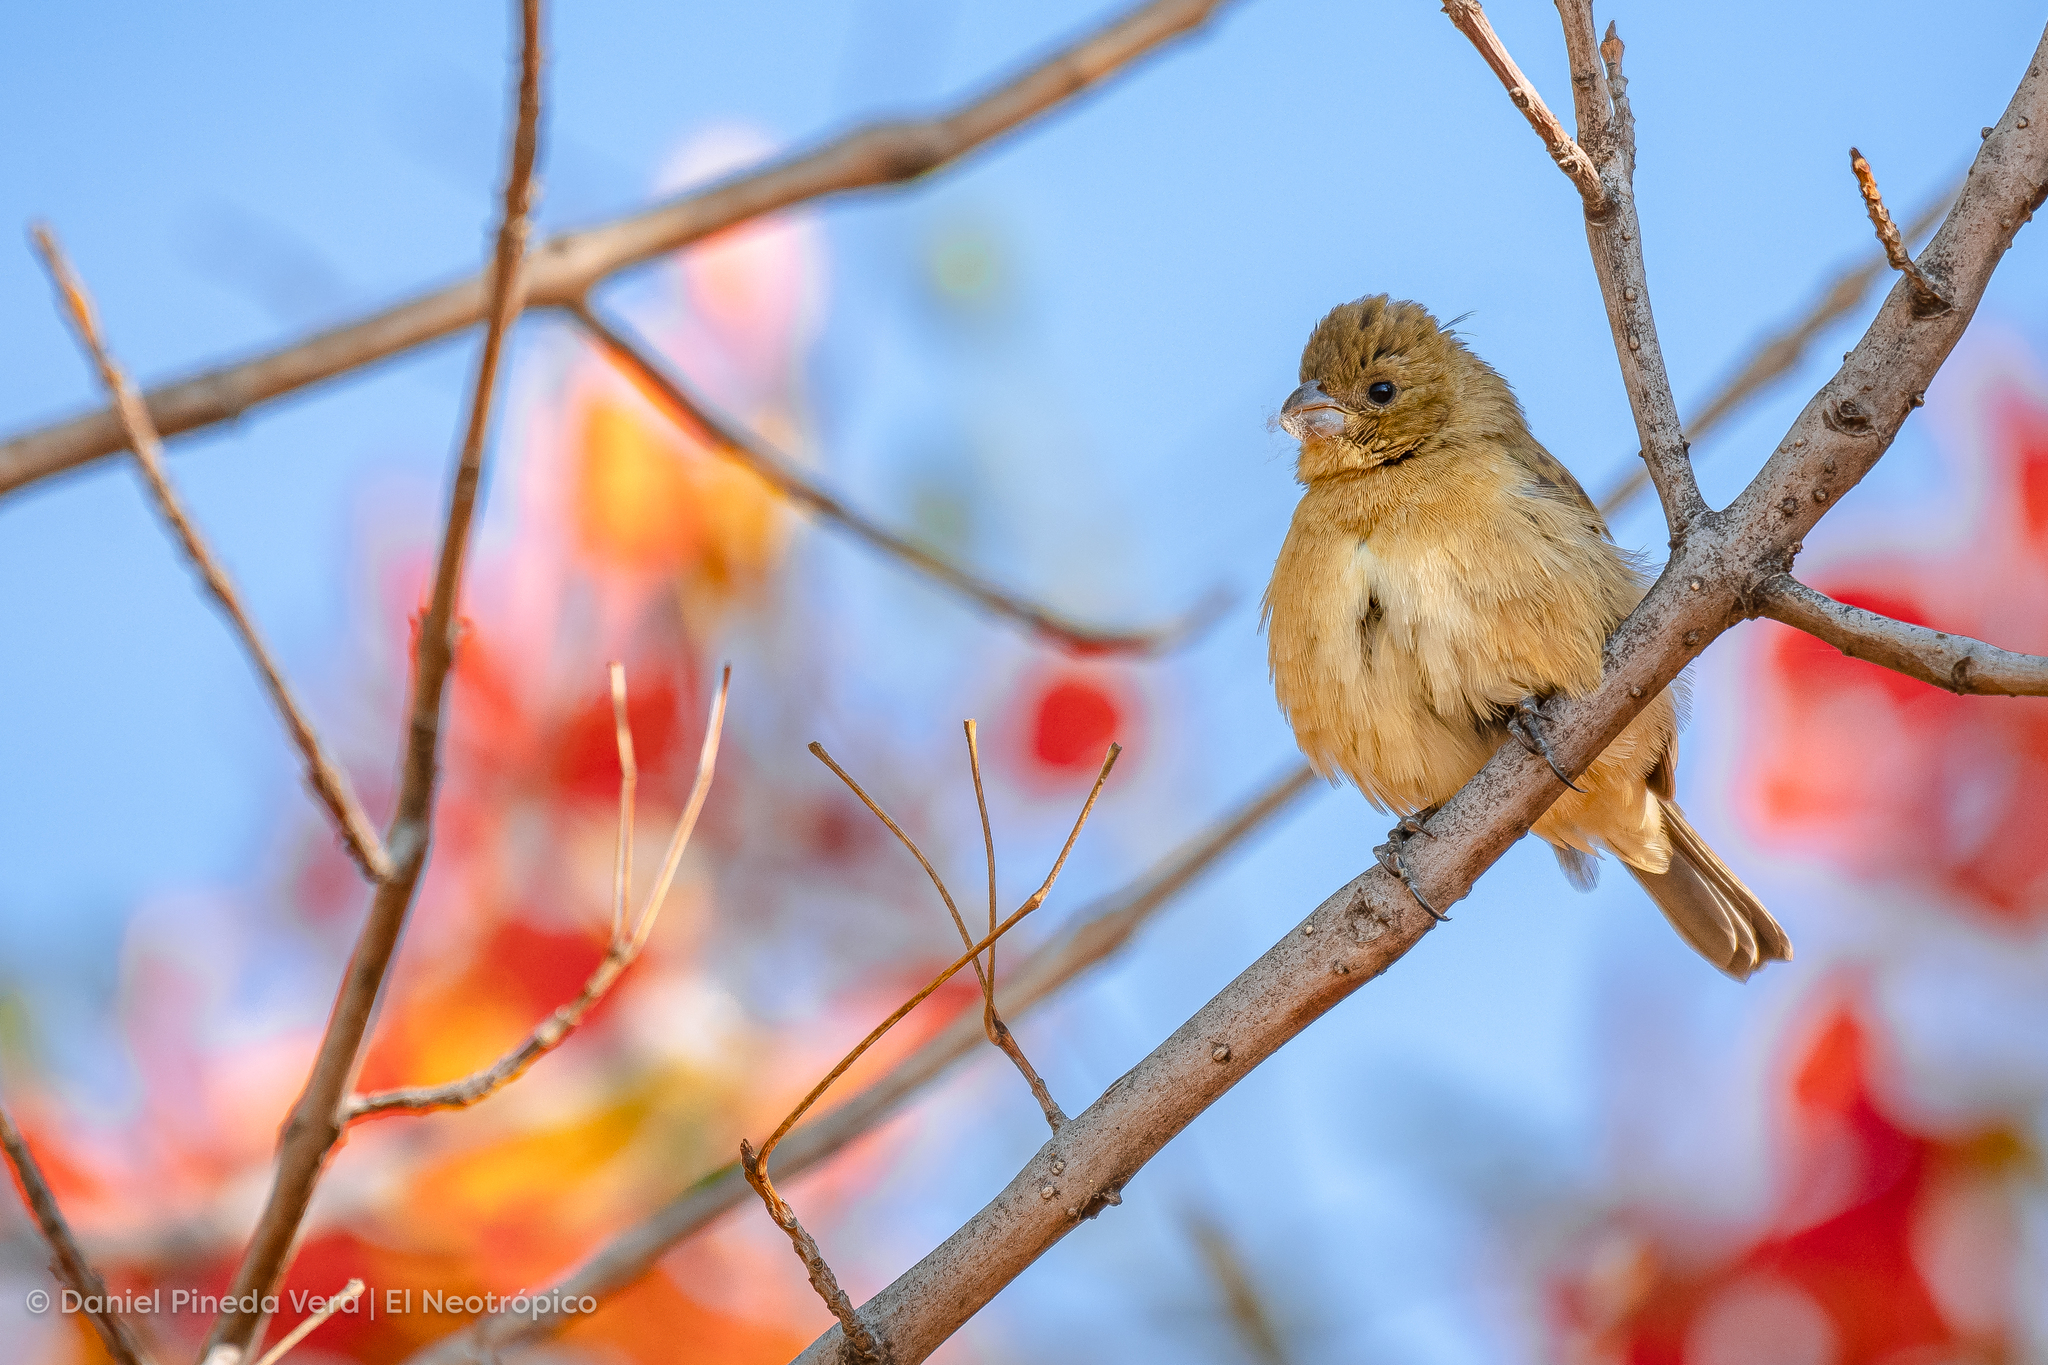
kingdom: Animalia
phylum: Chordata
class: Aves
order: Passeriformes
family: Thraupidae
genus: Sporophila
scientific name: Sporophila torqueola
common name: White-collared seedeater
